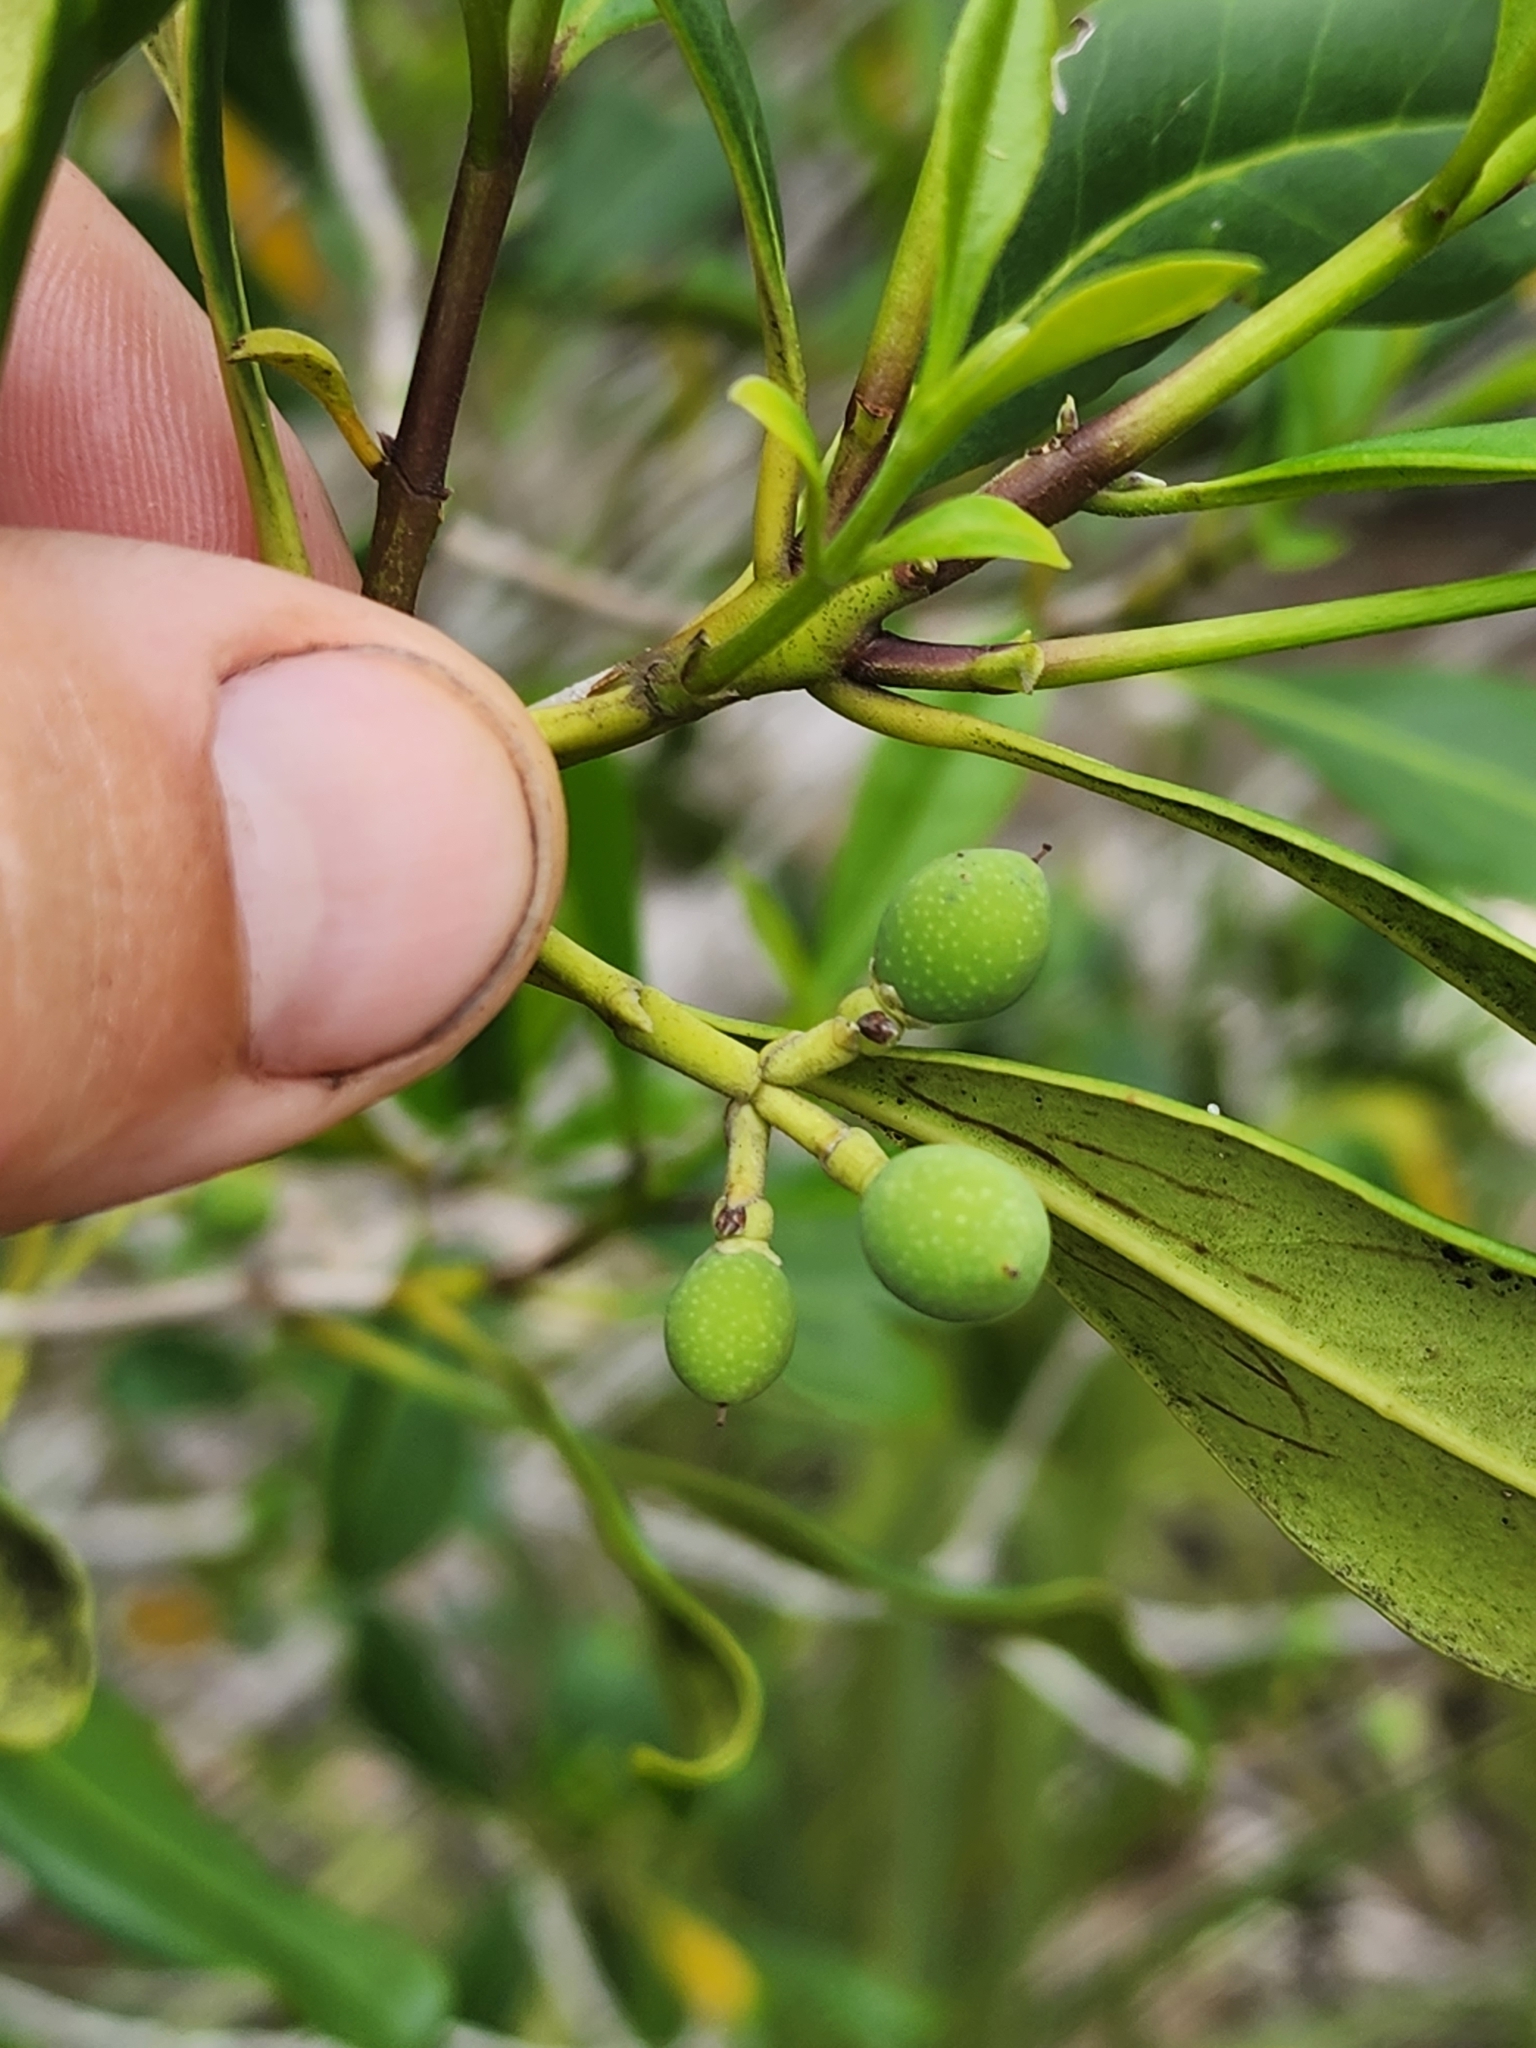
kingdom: Plantae
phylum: Tracheophyta
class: Magnoliopsida
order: Lamiales
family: Oleaceae
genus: Cartrema
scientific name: Cartrema floridana
